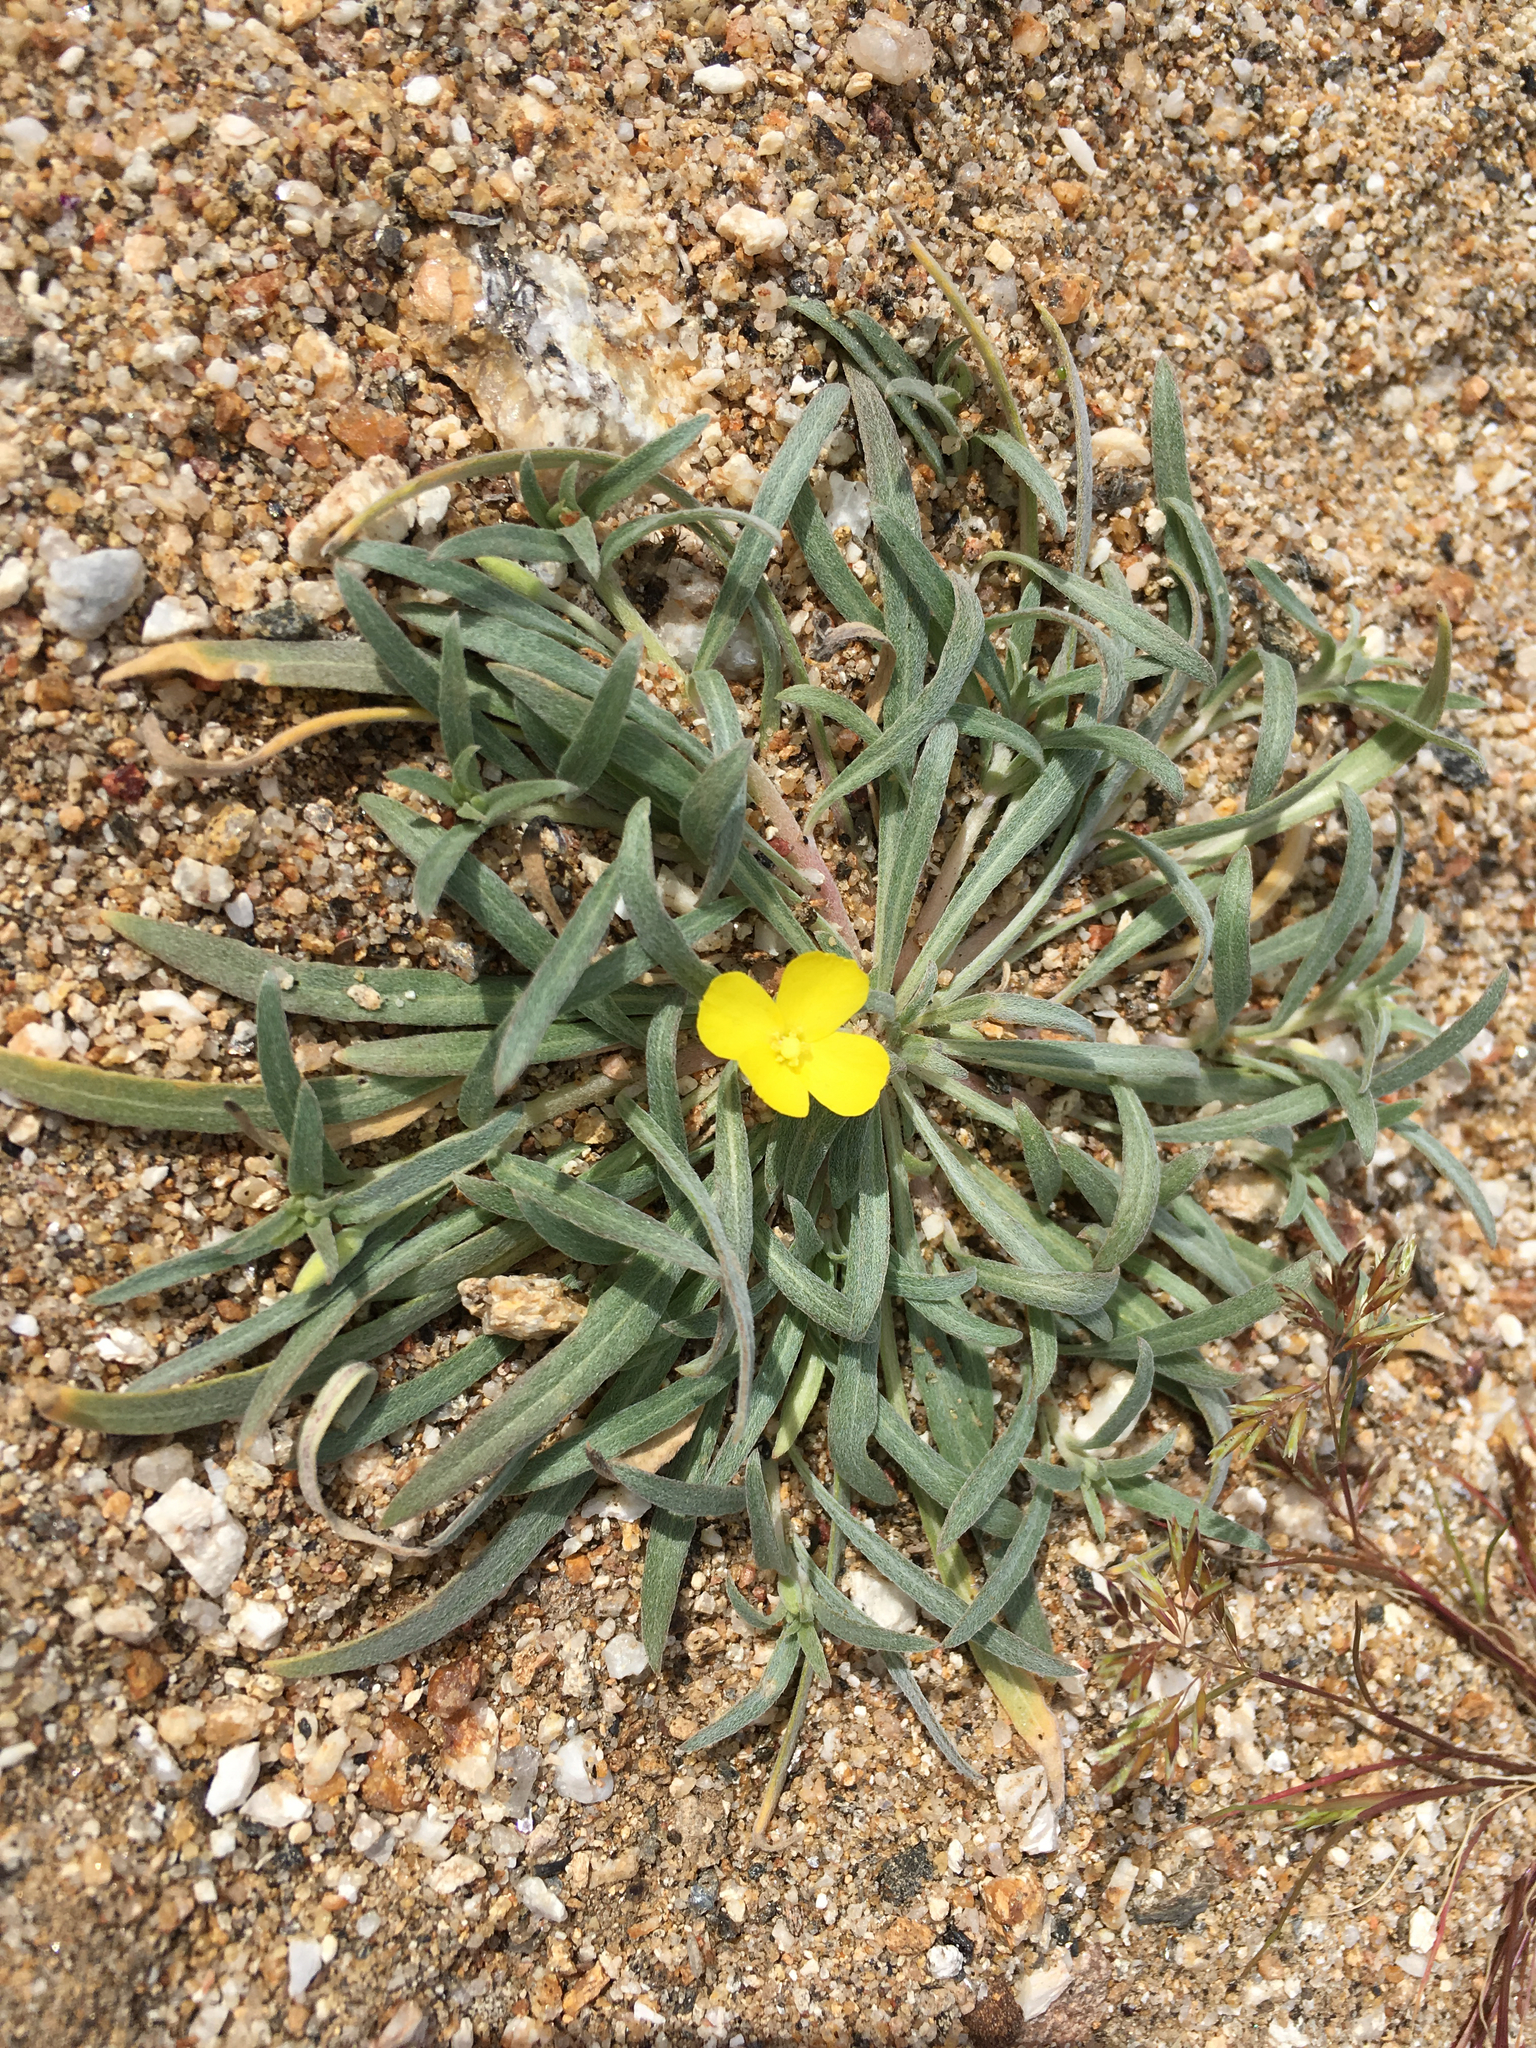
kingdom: Plantae
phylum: Tracheophyta
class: Magnoliopsida
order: Myrtales
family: Onagraceae
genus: Camissoniopsis
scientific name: Camissoniopsis pallida
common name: Paleyellow suncup
